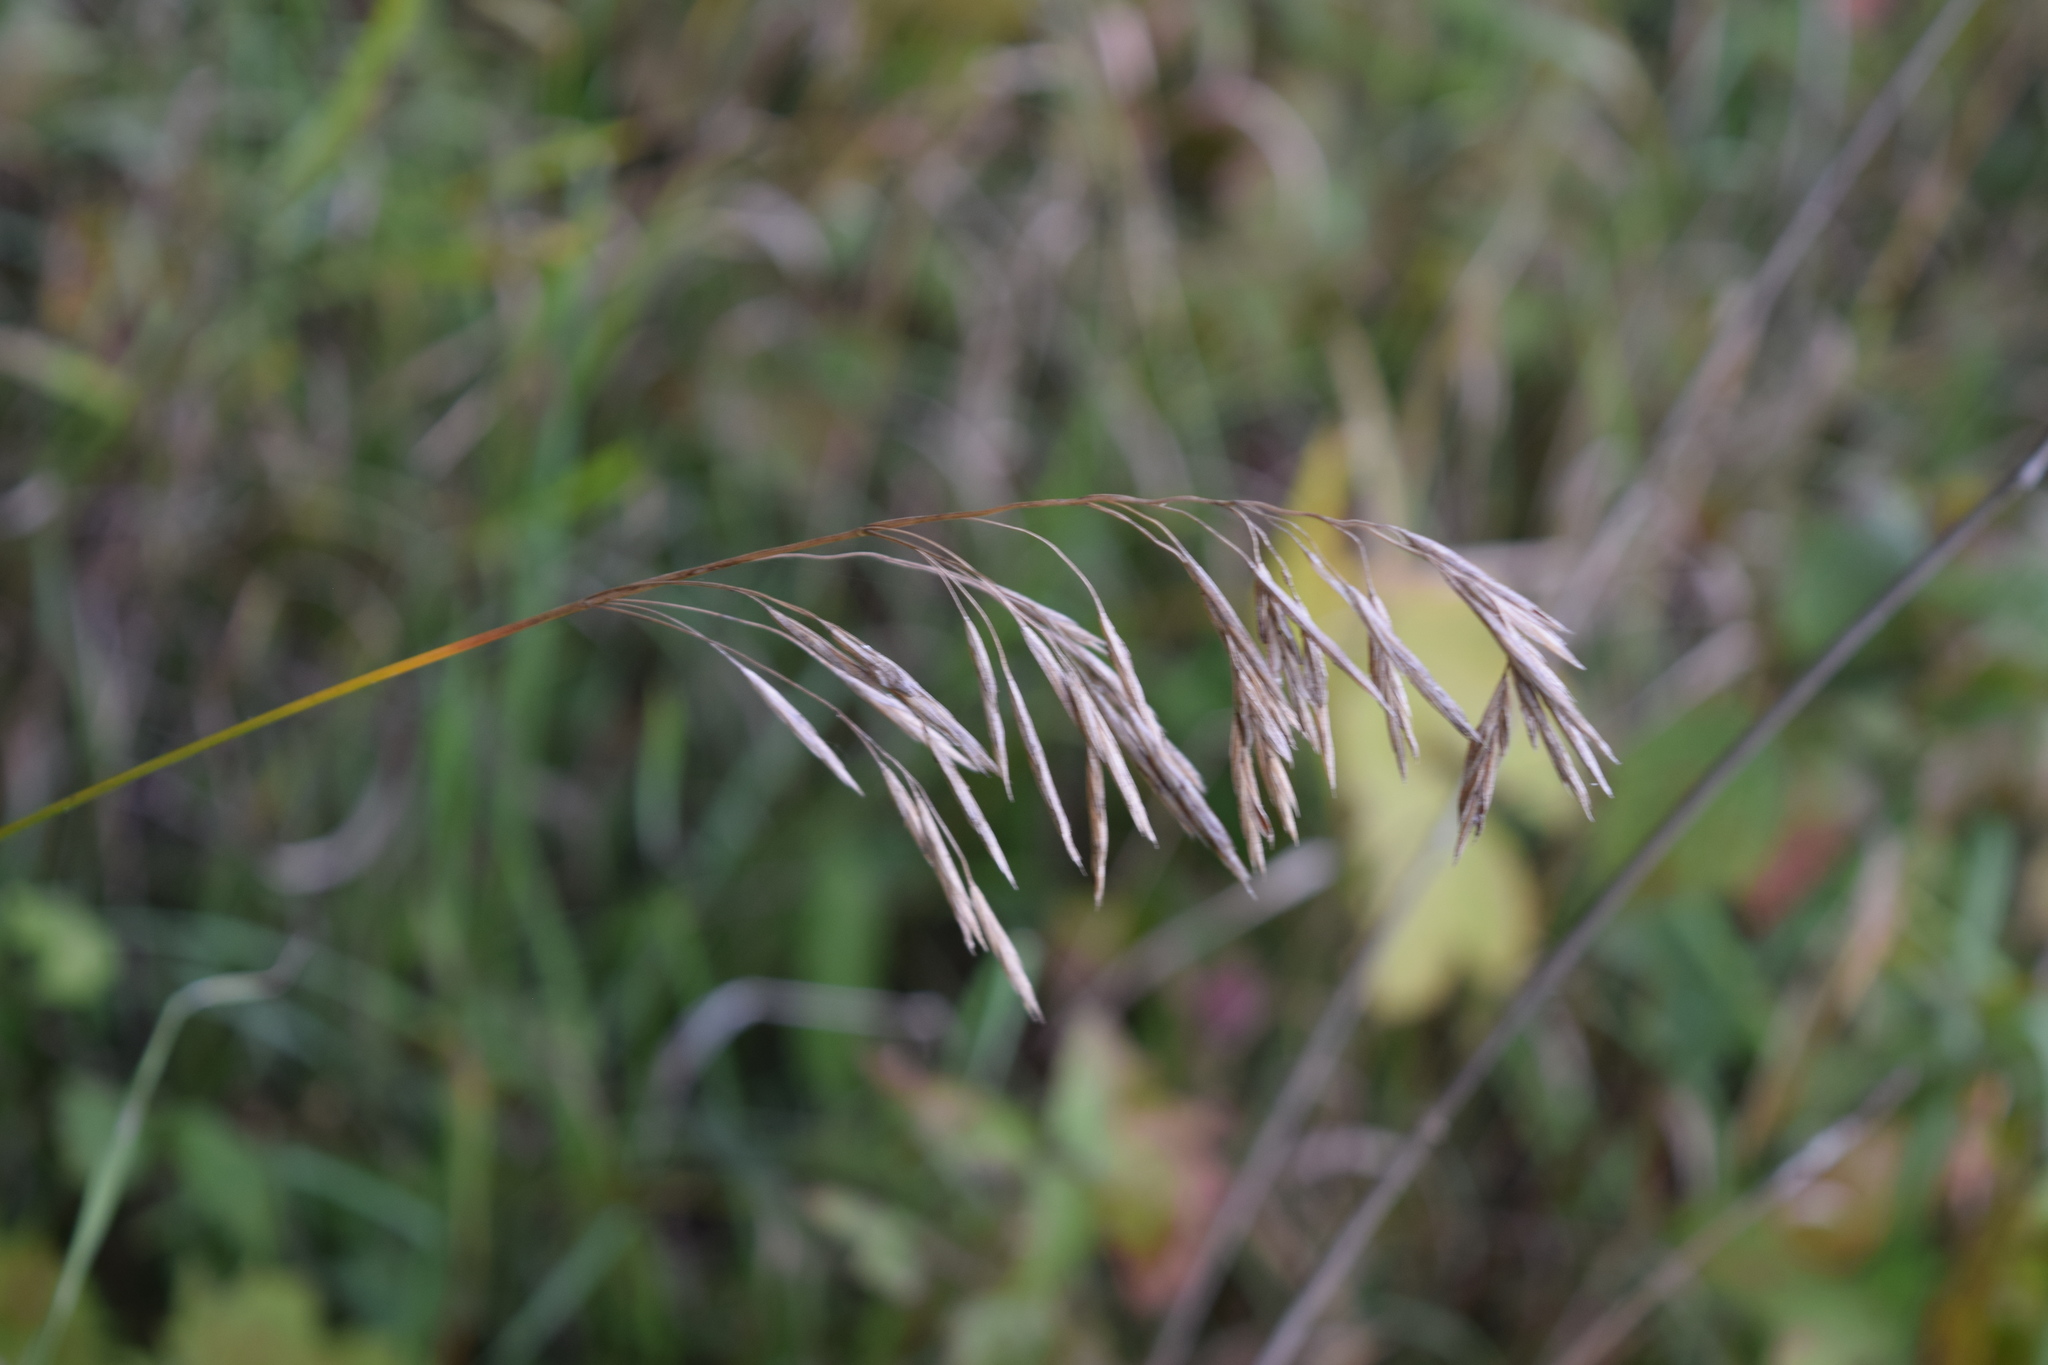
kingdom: Plantae
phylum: Tracheophyta
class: Liliopsida
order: Poales
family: Poaceae
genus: Bromus
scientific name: Bromus inermis
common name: Smooth brome
